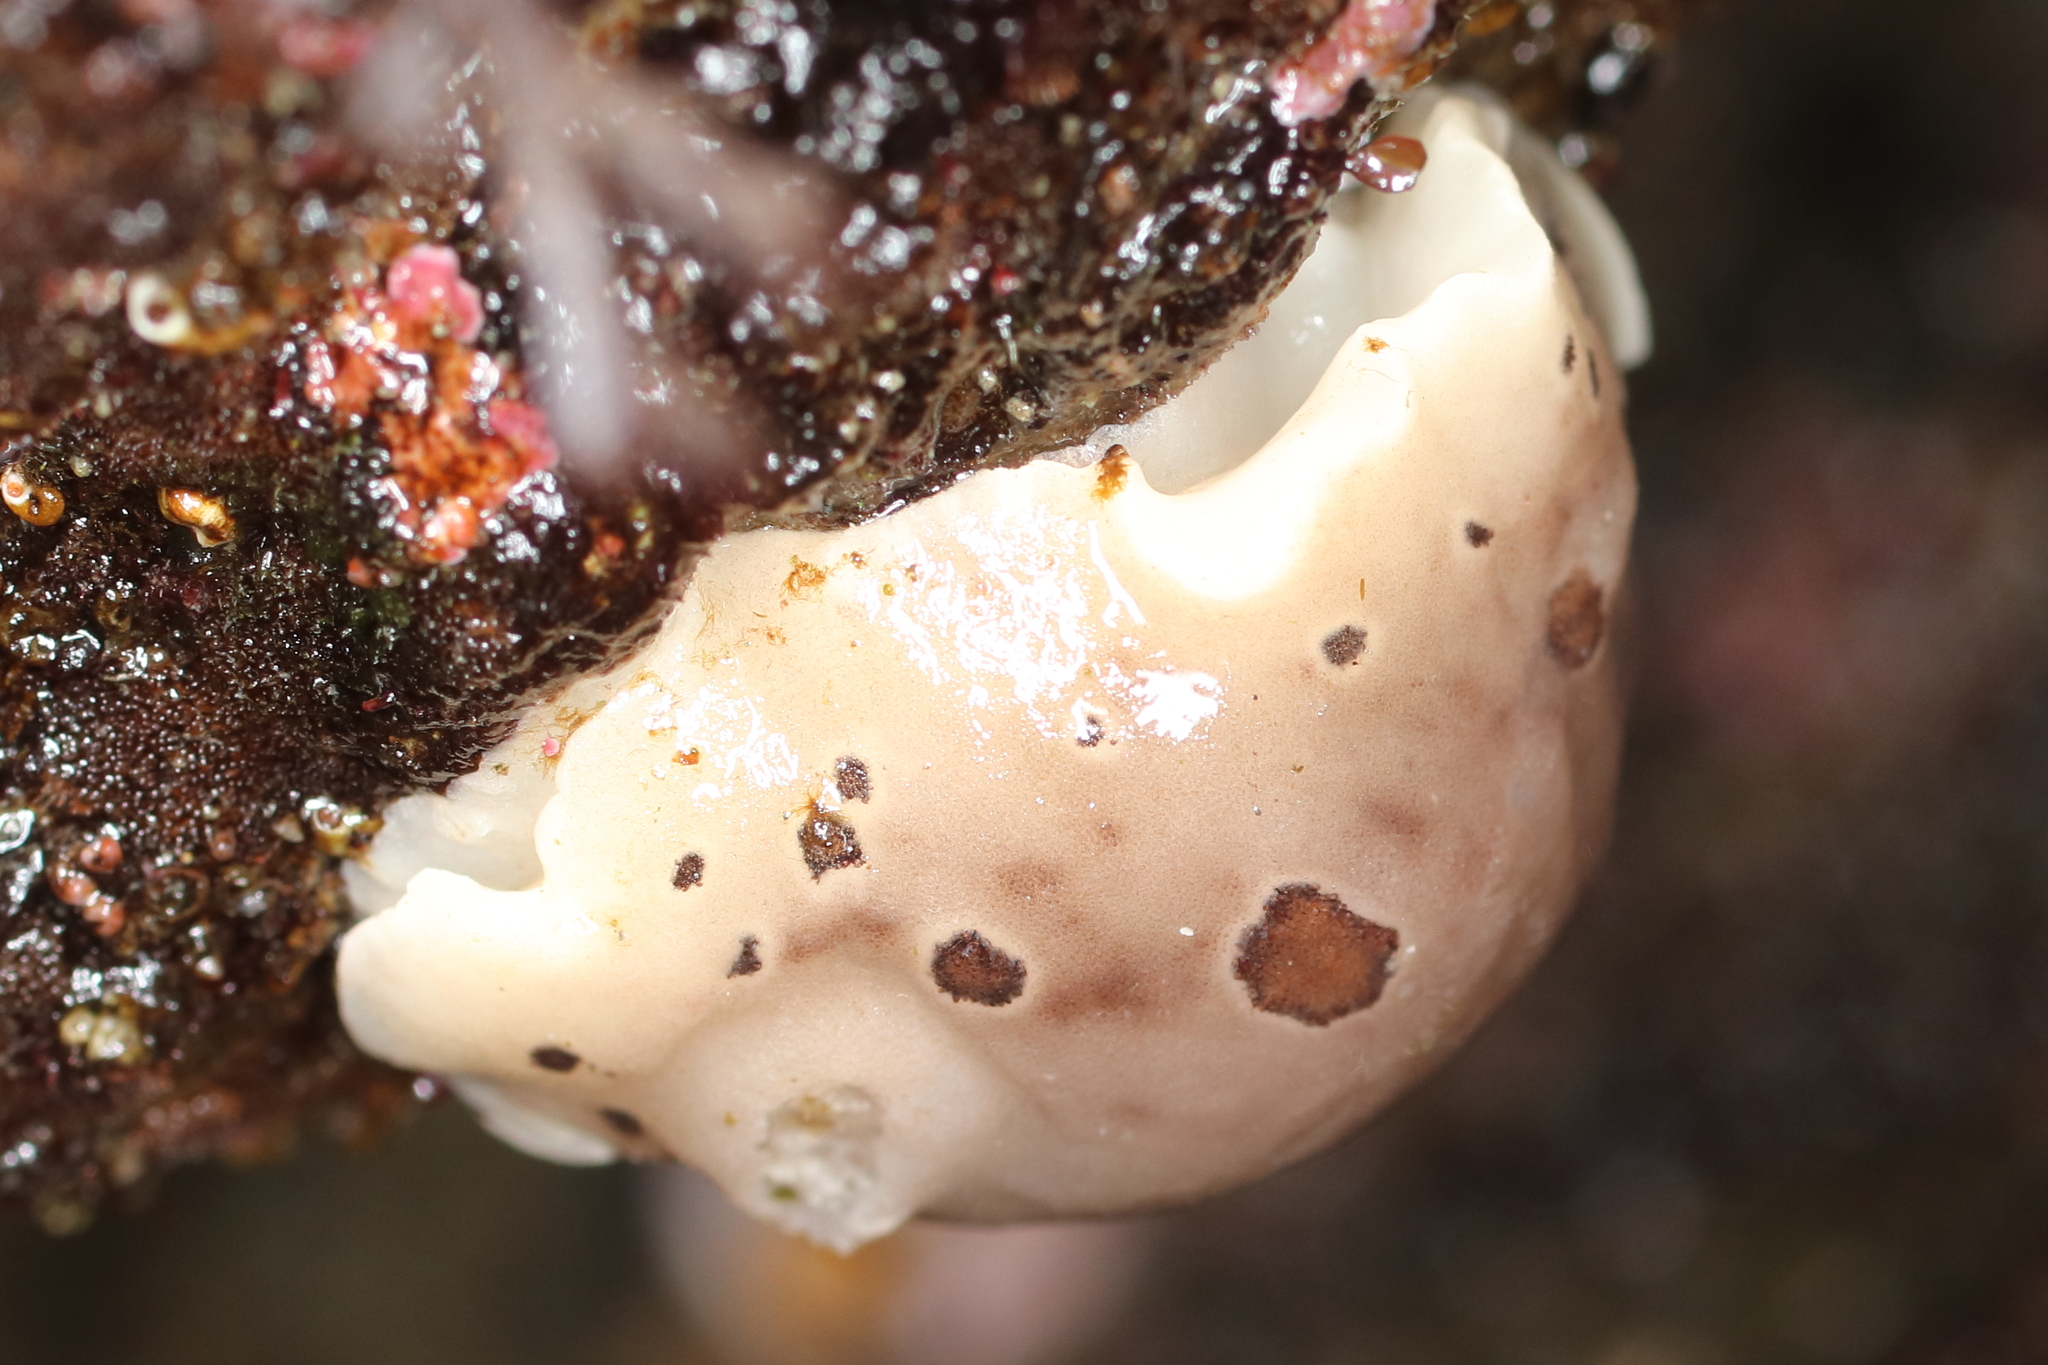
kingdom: Animalia
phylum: Mollusca
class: Gastropoda
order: Nudibranchia
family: Discodorididae
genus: Diaulula
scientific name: Diaulula odonoghuei
